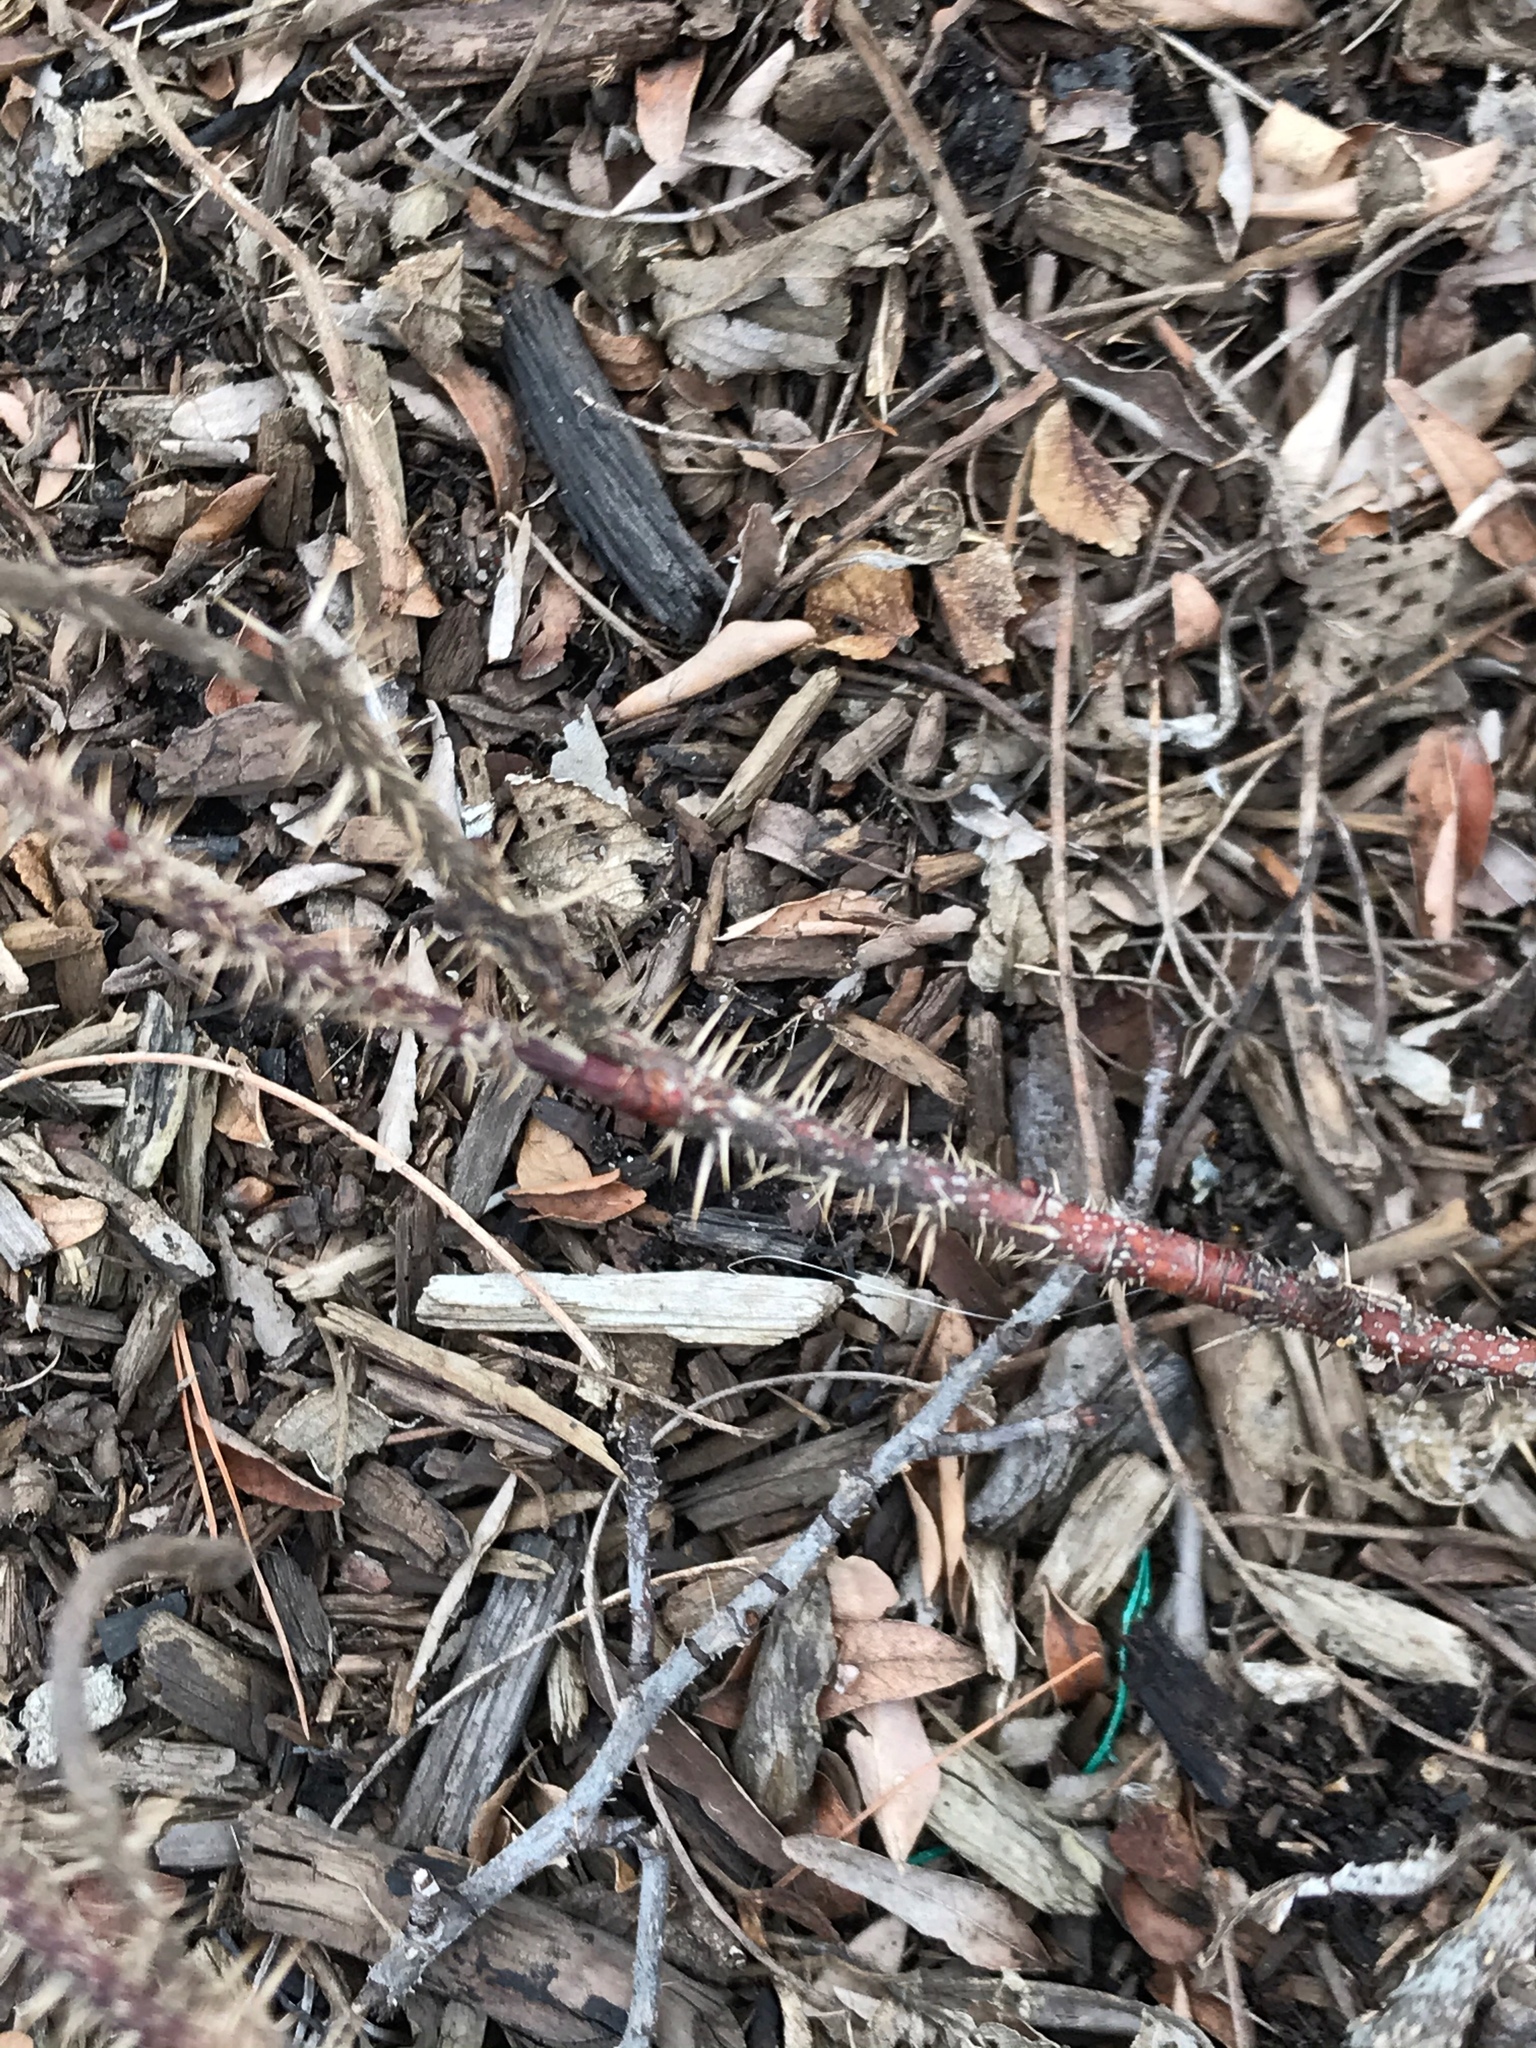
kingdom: Plantae
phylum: Tracheophyta
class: Magnoliopsida
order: Solanales
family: Solanaceae
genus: Solanum
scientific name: Solanum carolinense
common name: Horse-nettle
